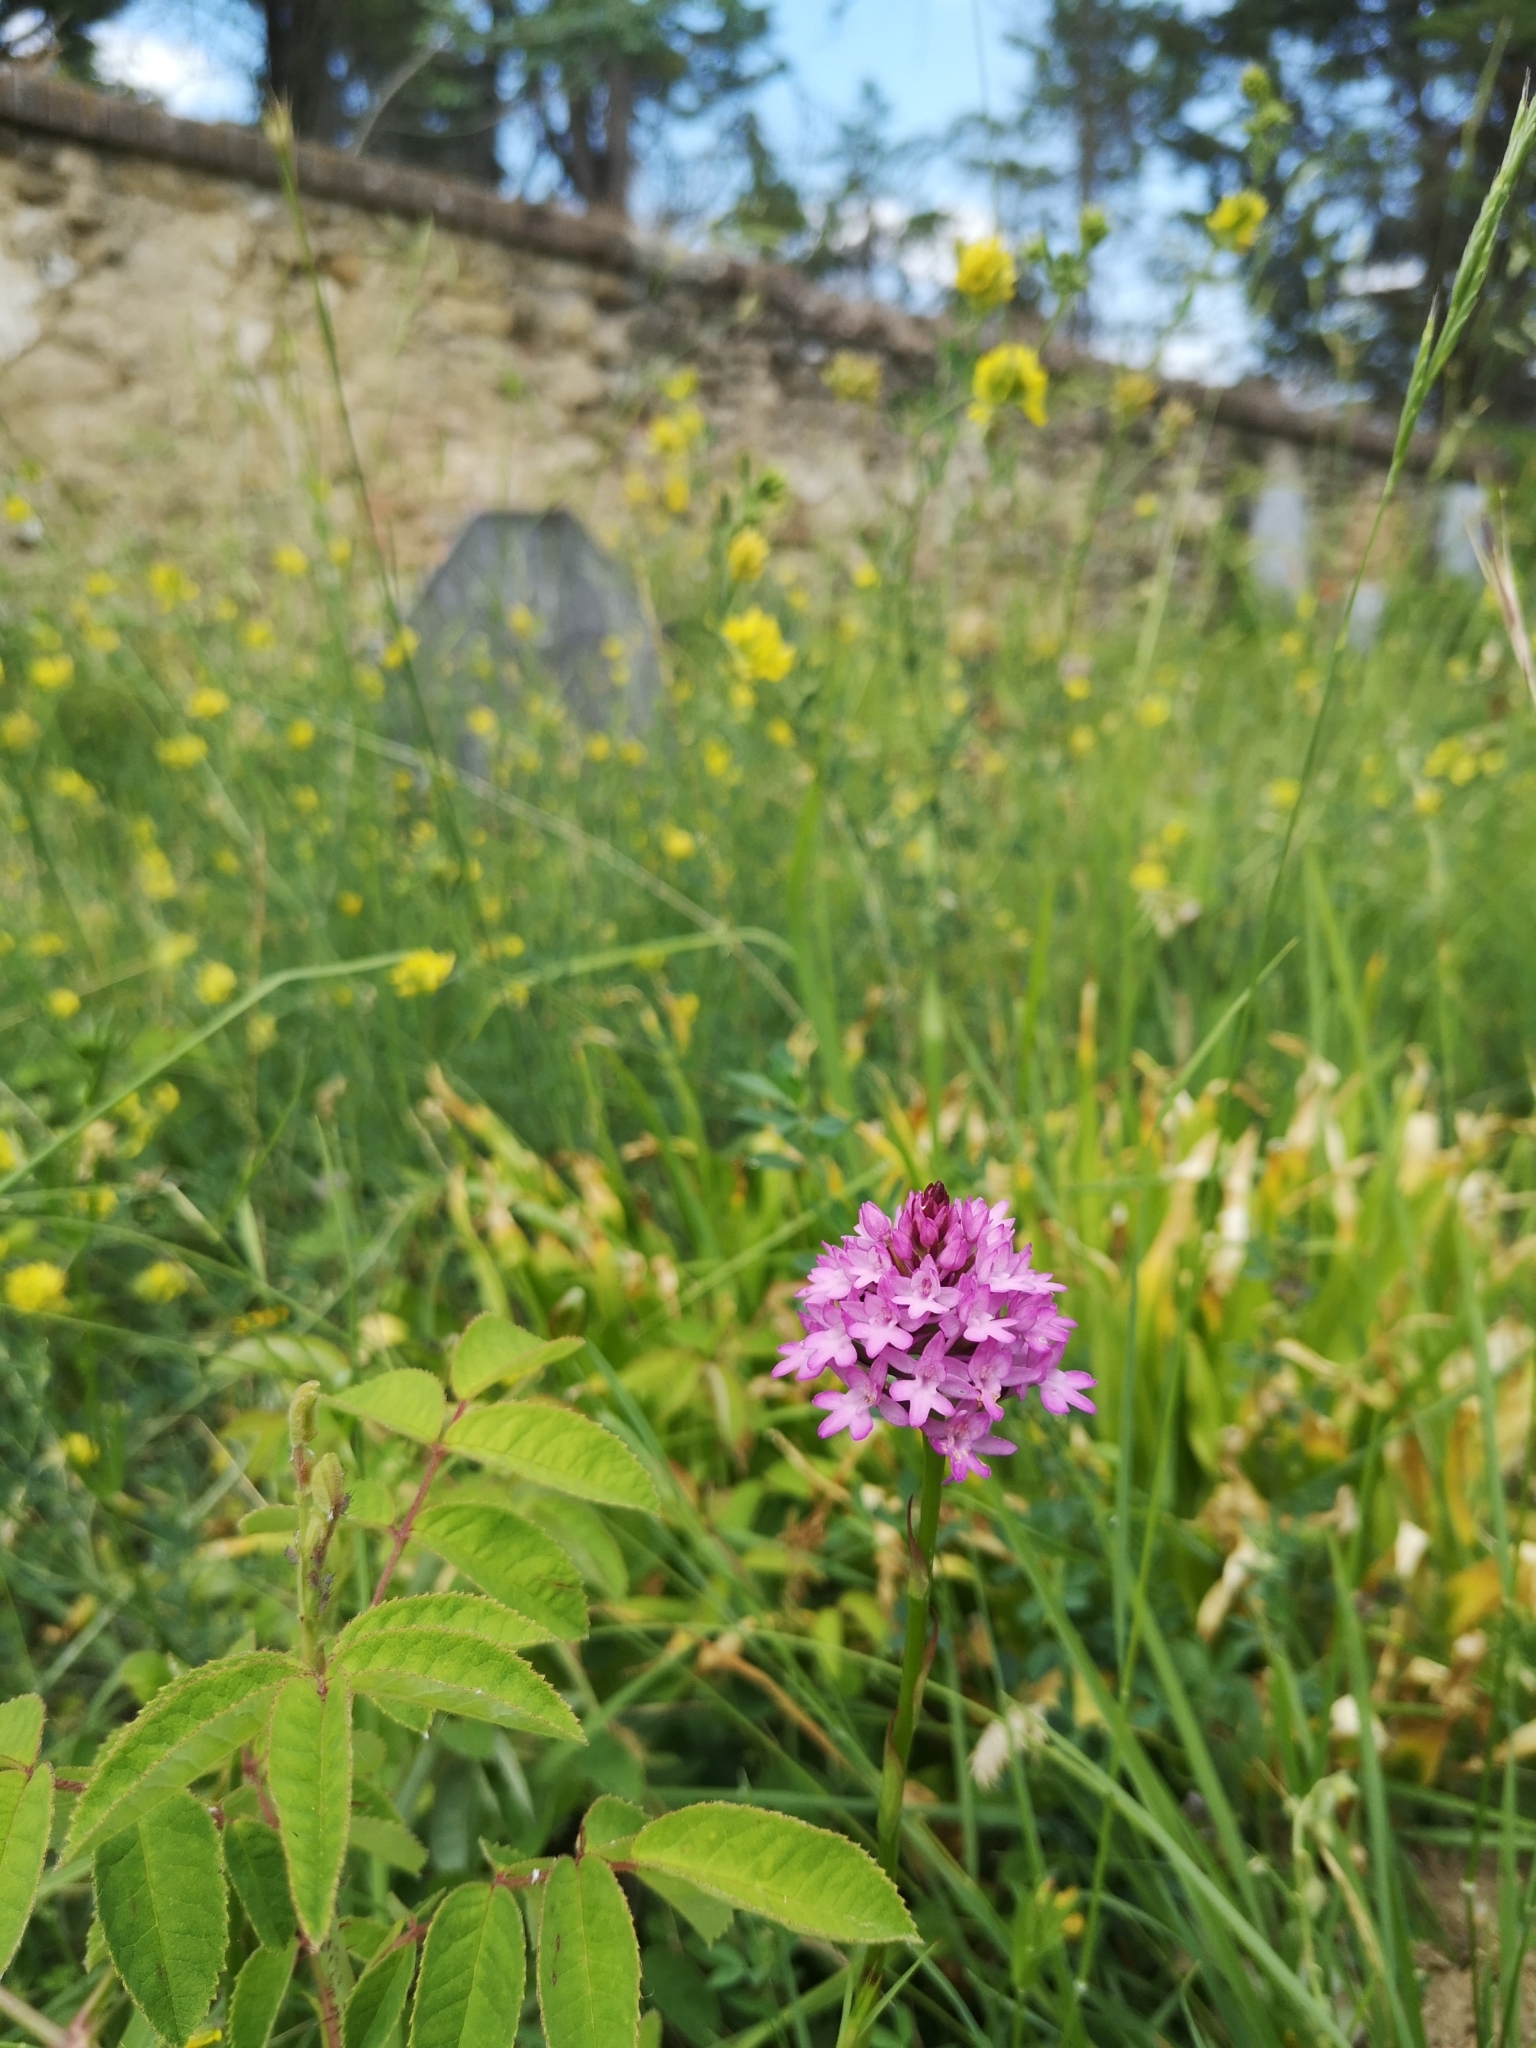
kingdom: Plantae
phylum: Tracheophyta
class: Liliopsida
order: Asparagales
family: Orchidaceae
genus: Anacamptis
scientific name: Anacamptis pyramidalis
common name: Pyramidal orchid
